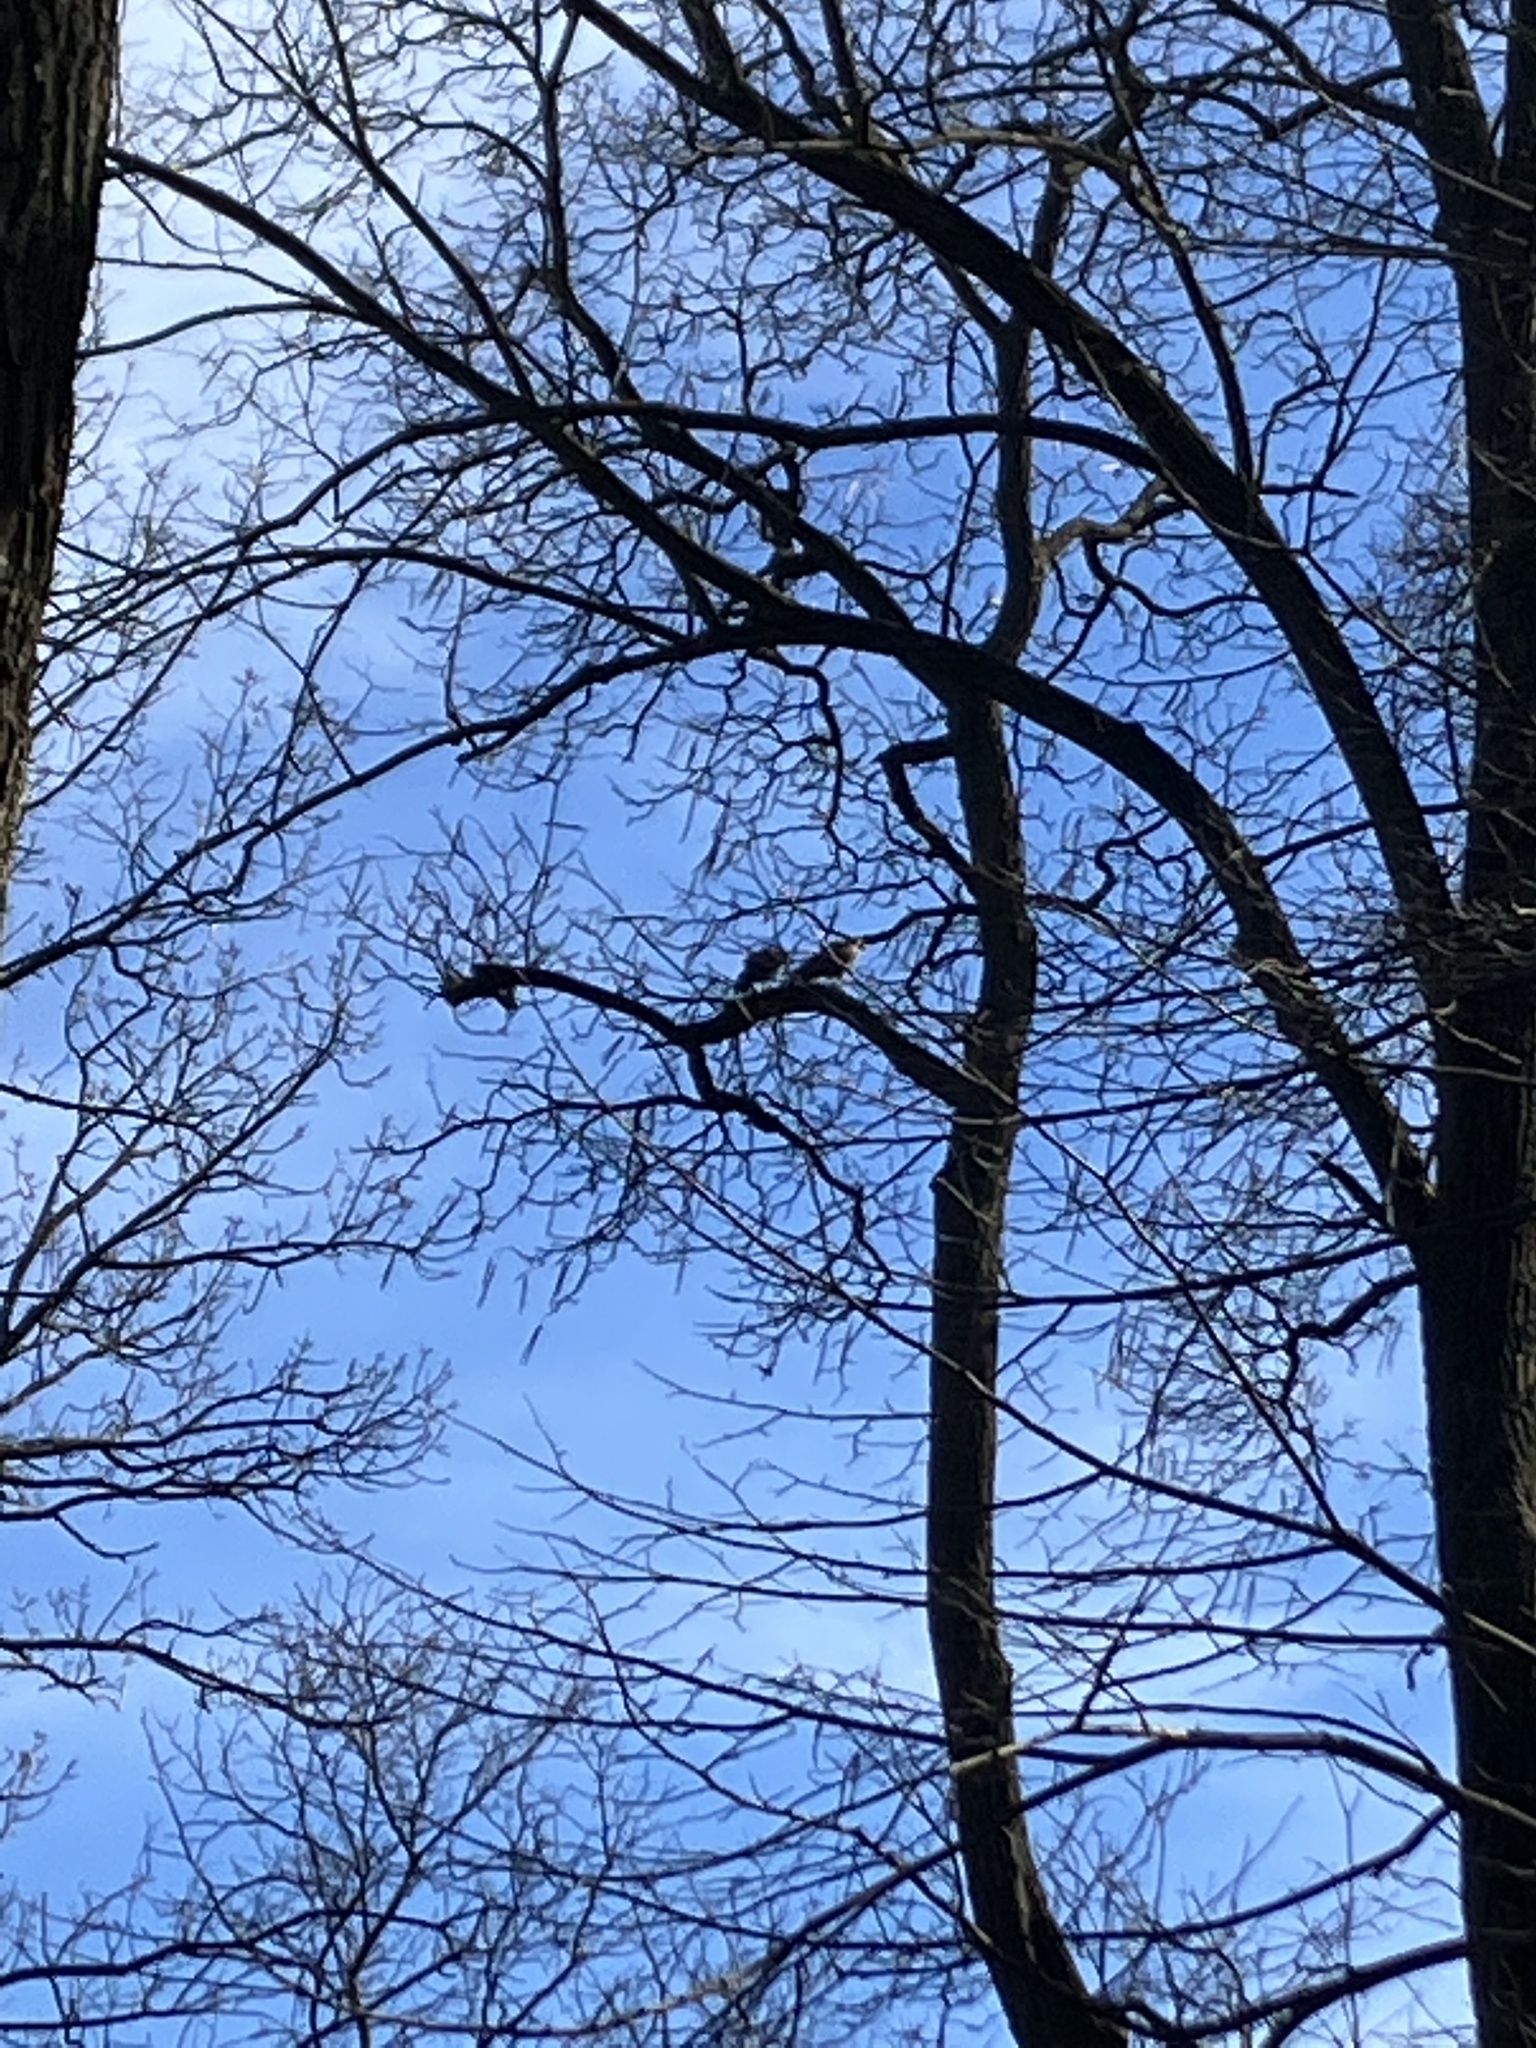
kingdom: Animalia
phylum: Chordata
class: Aves
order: Accipitriformes
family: Accipitridae
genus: Buteo
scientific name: Buteo lineatus
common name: Red-shouldered hawk
